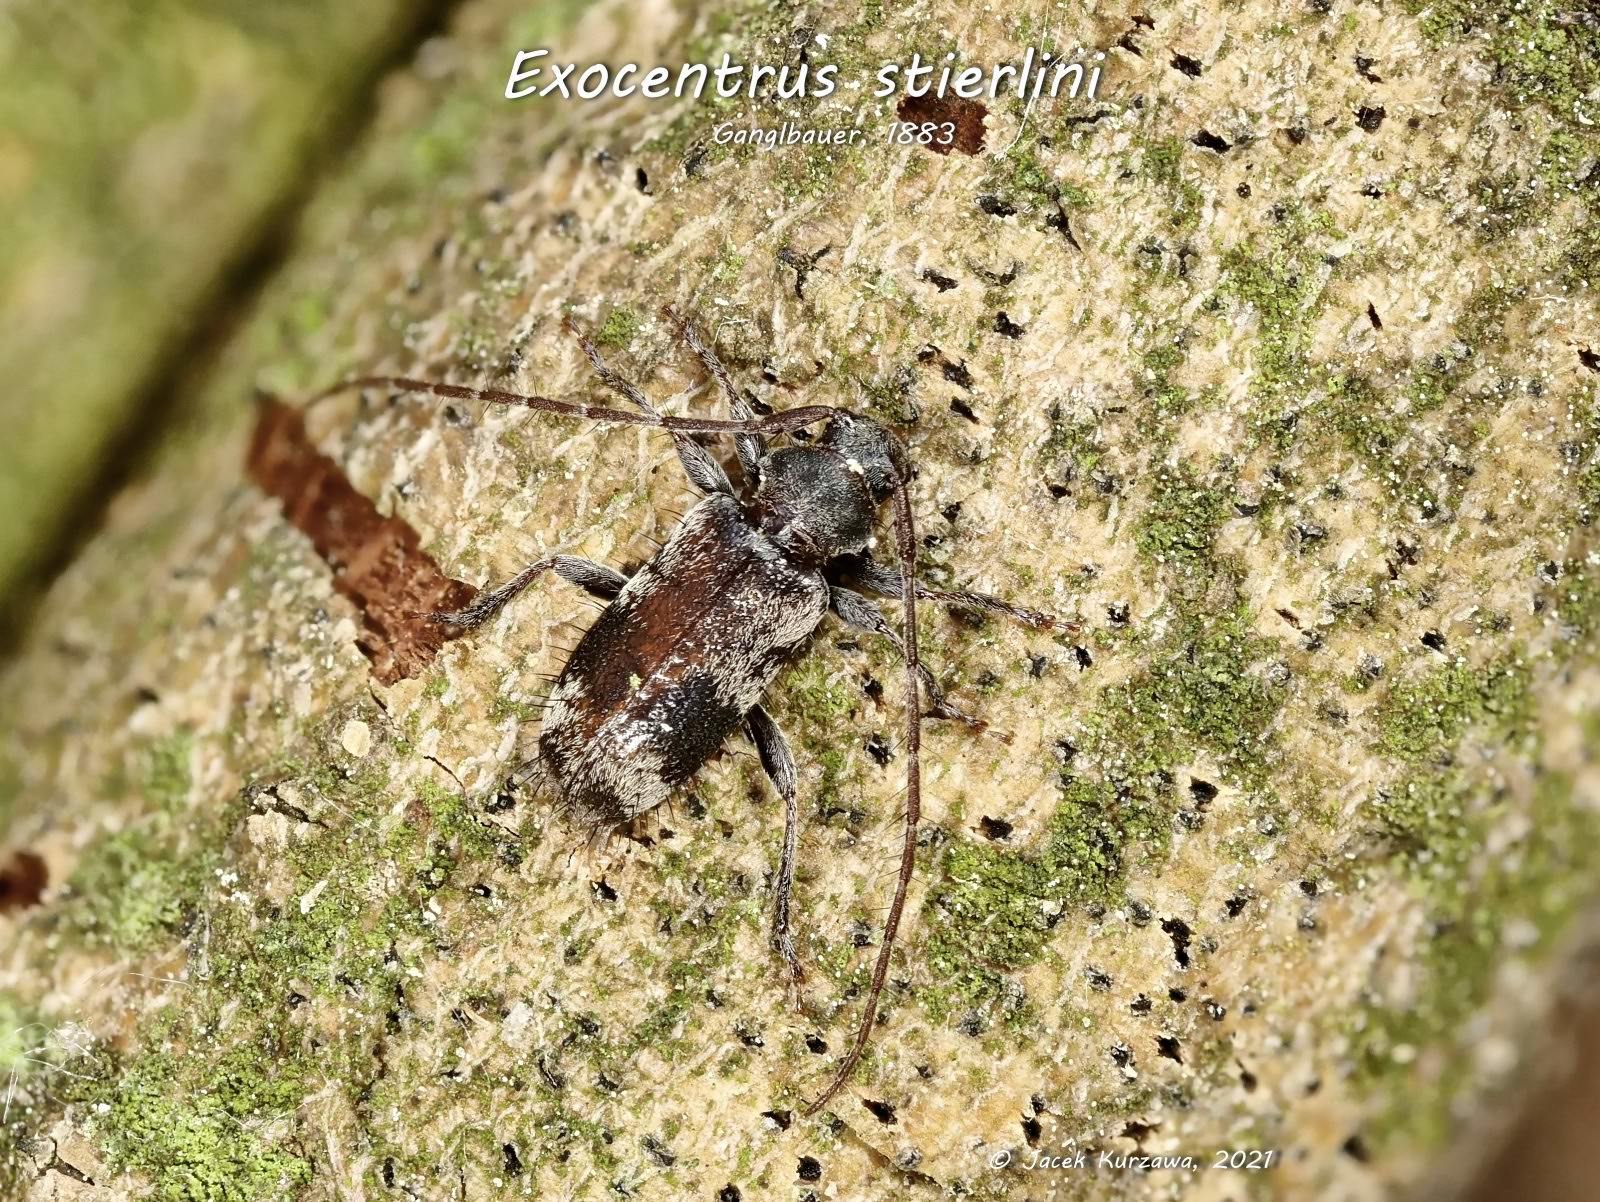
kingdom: Animalia
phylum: Arthropoda
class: Insecta
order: Coleoptera
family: Cerambycidae
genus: Exocentrus
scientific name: Exocentrus stierlini
